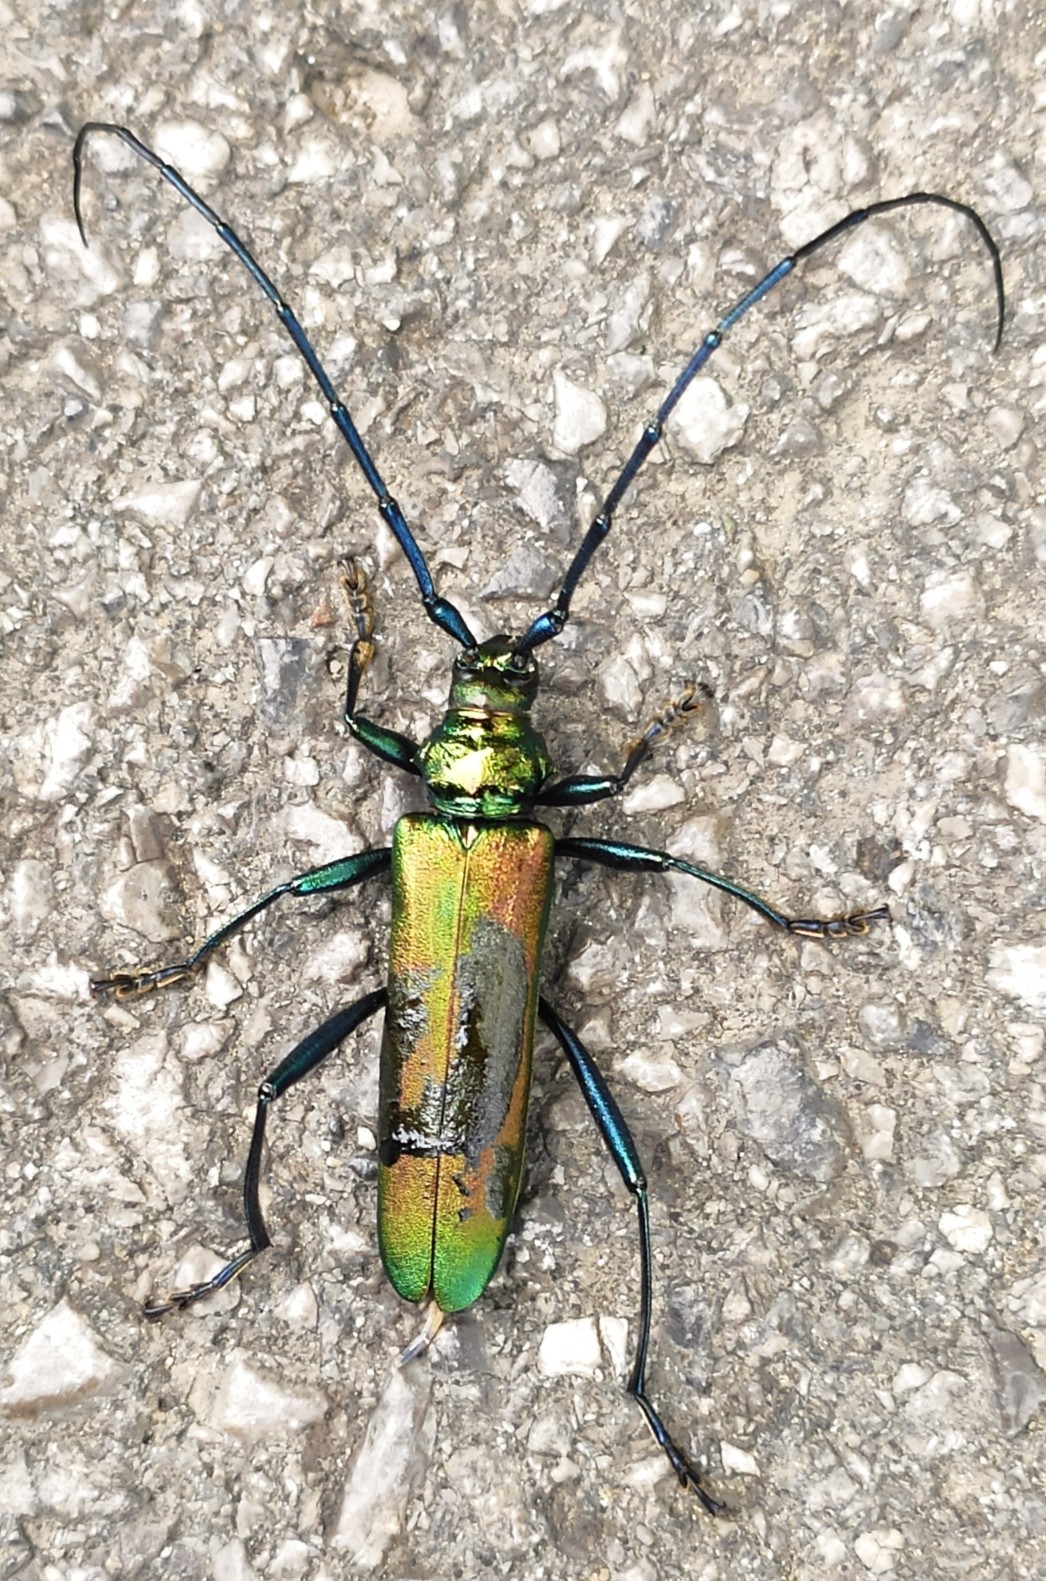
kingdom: Animalia
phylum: Arthropoda
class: Insecta
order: Coleoptera
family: Cerambycidae
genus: Aromia
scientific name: Aromia moschata
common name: Musk beetle
